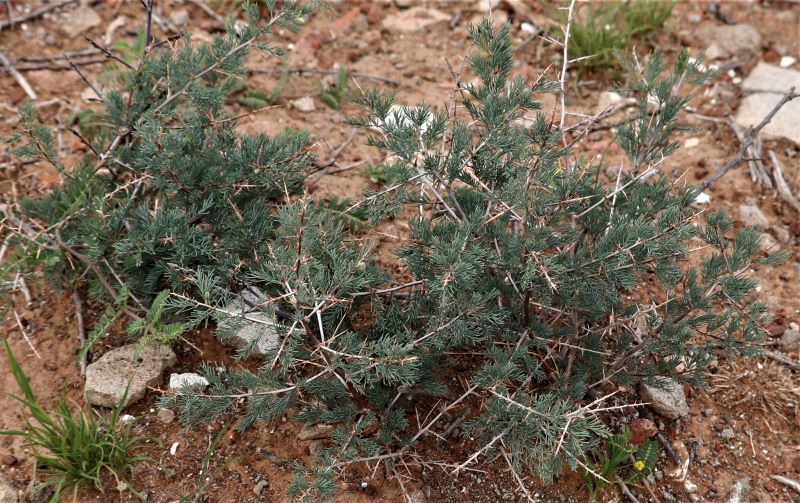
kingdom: Plantae
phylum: Tracheophyta
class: Liliopsida
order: Asparagales
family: Asparagaceae
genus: Asparagus
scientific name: Asparagus glaucus
